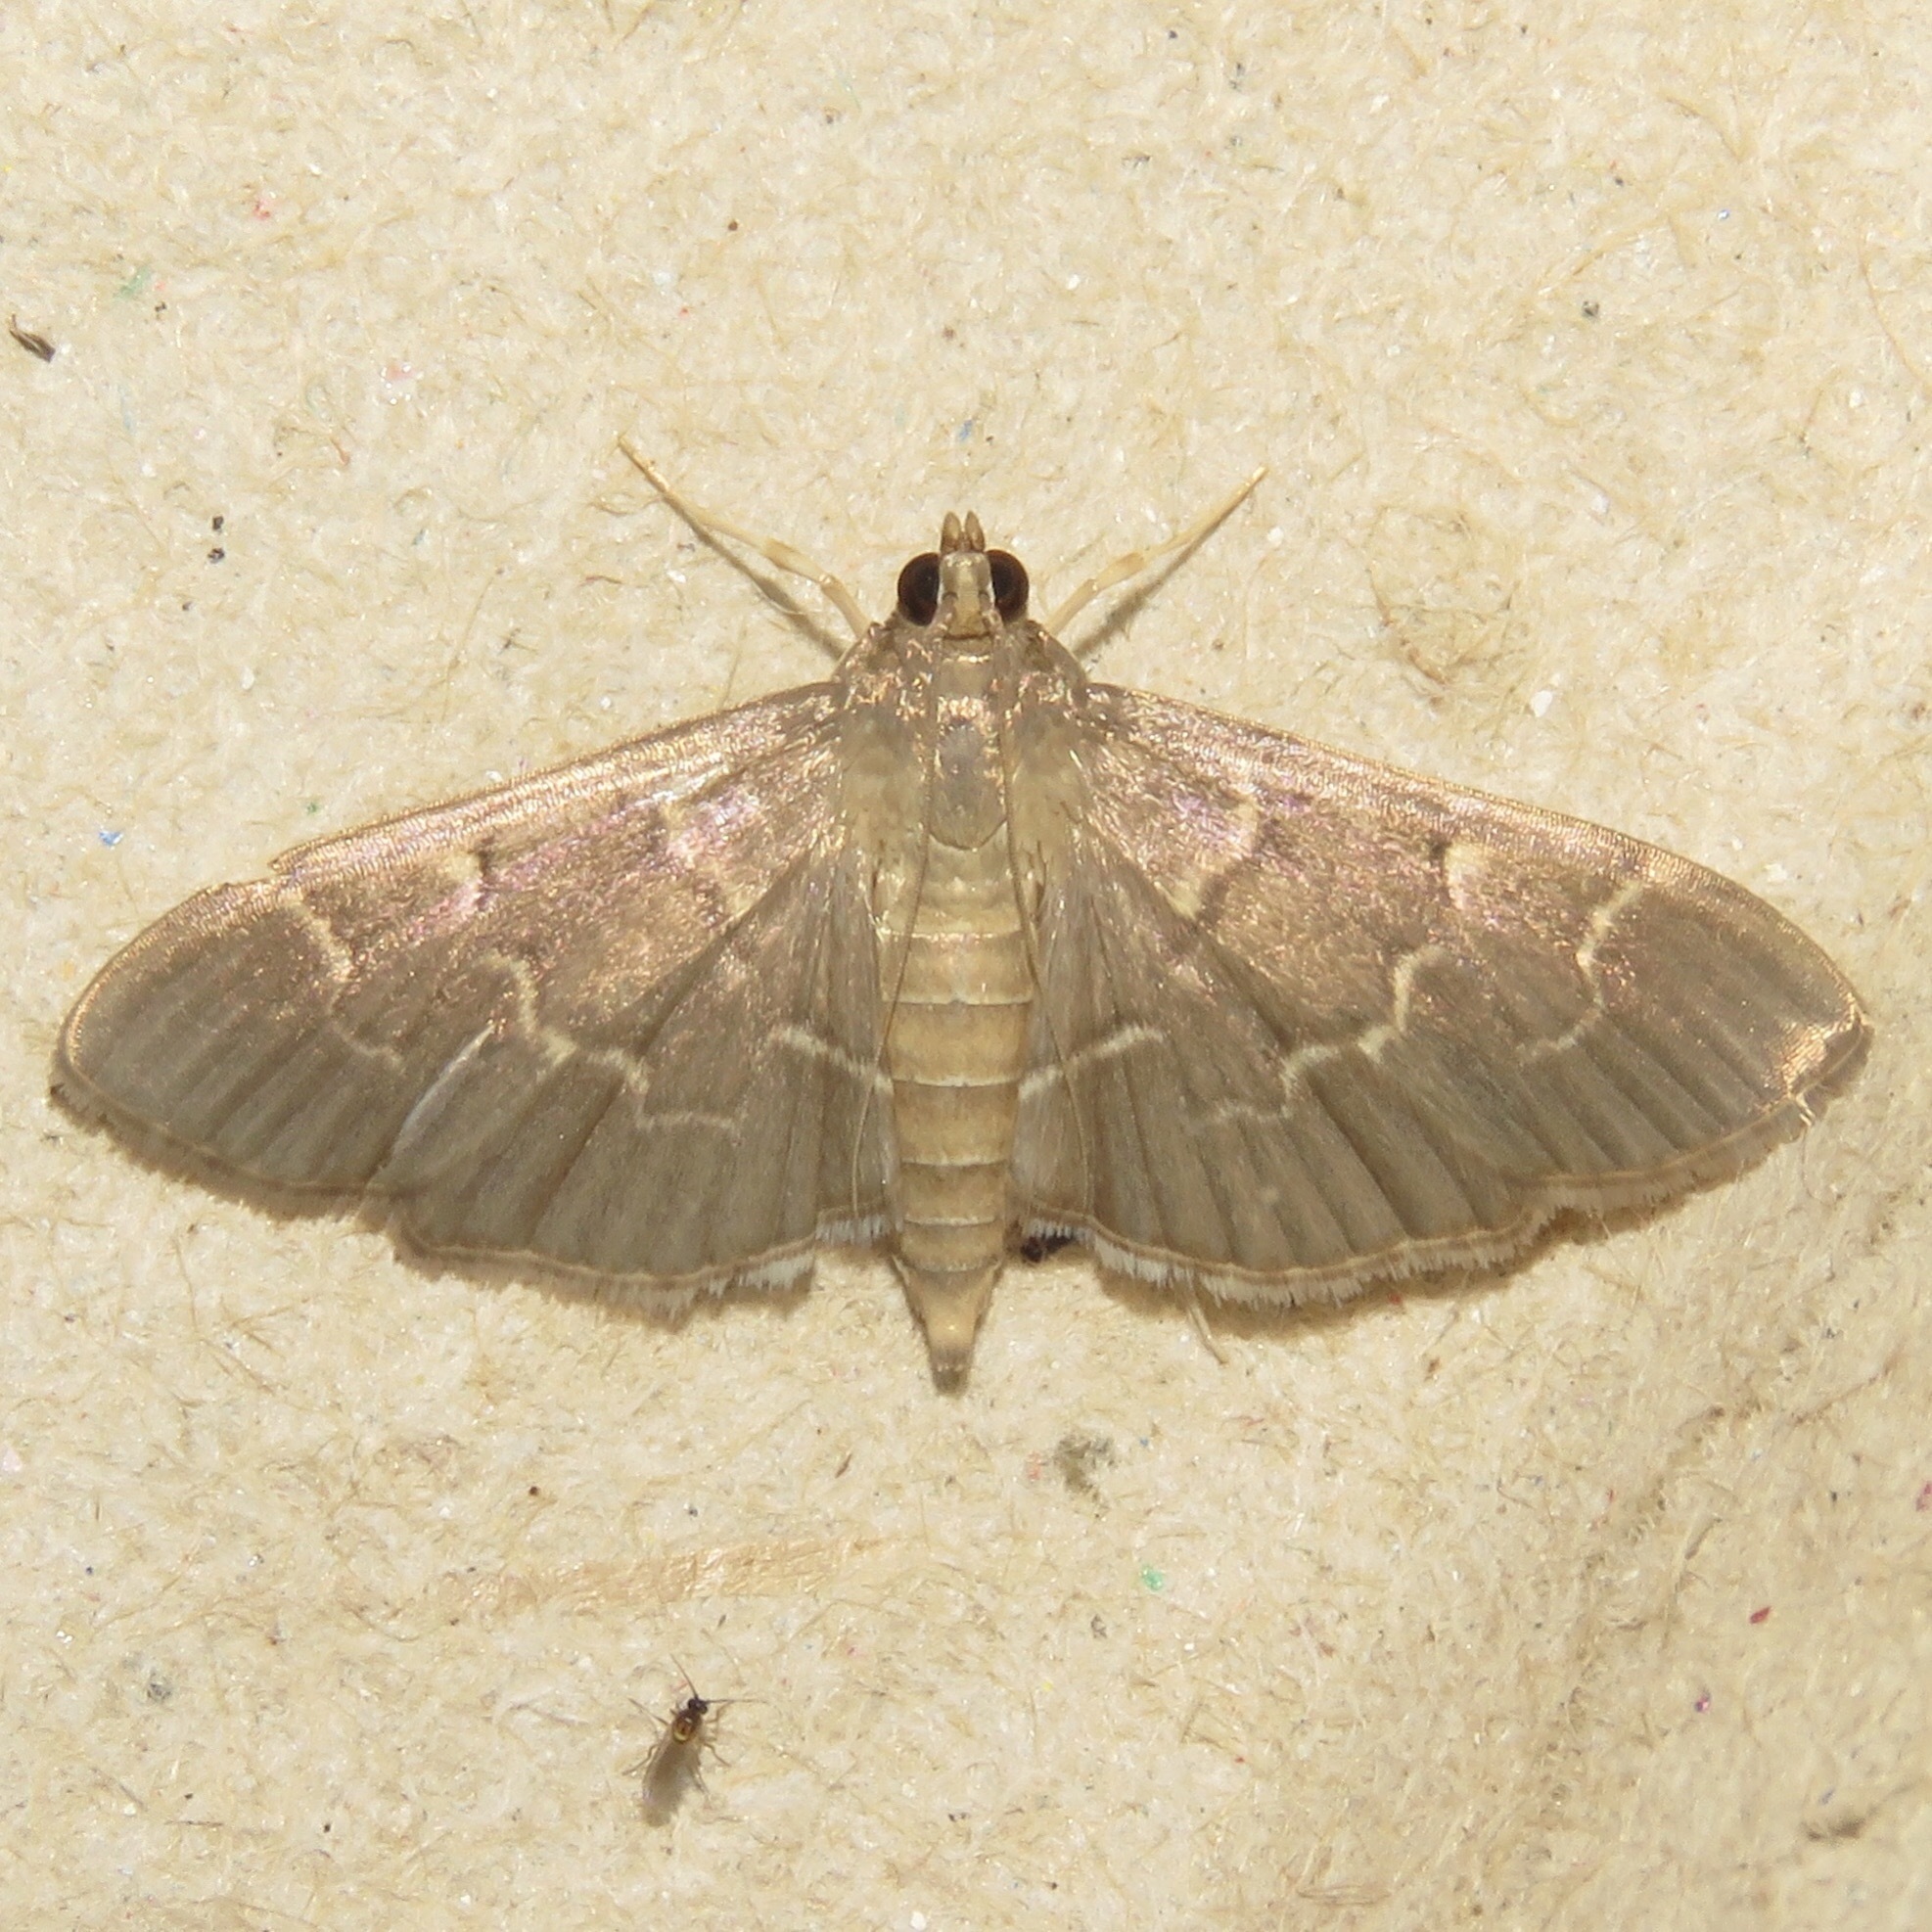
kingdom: Animalia
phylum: Arthropoda
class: Insecta
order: Lepidoptera
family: Crambidae
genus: Pilocrocis
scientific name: Pilocrocis ramentalis
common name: Scraped pilocrocis
